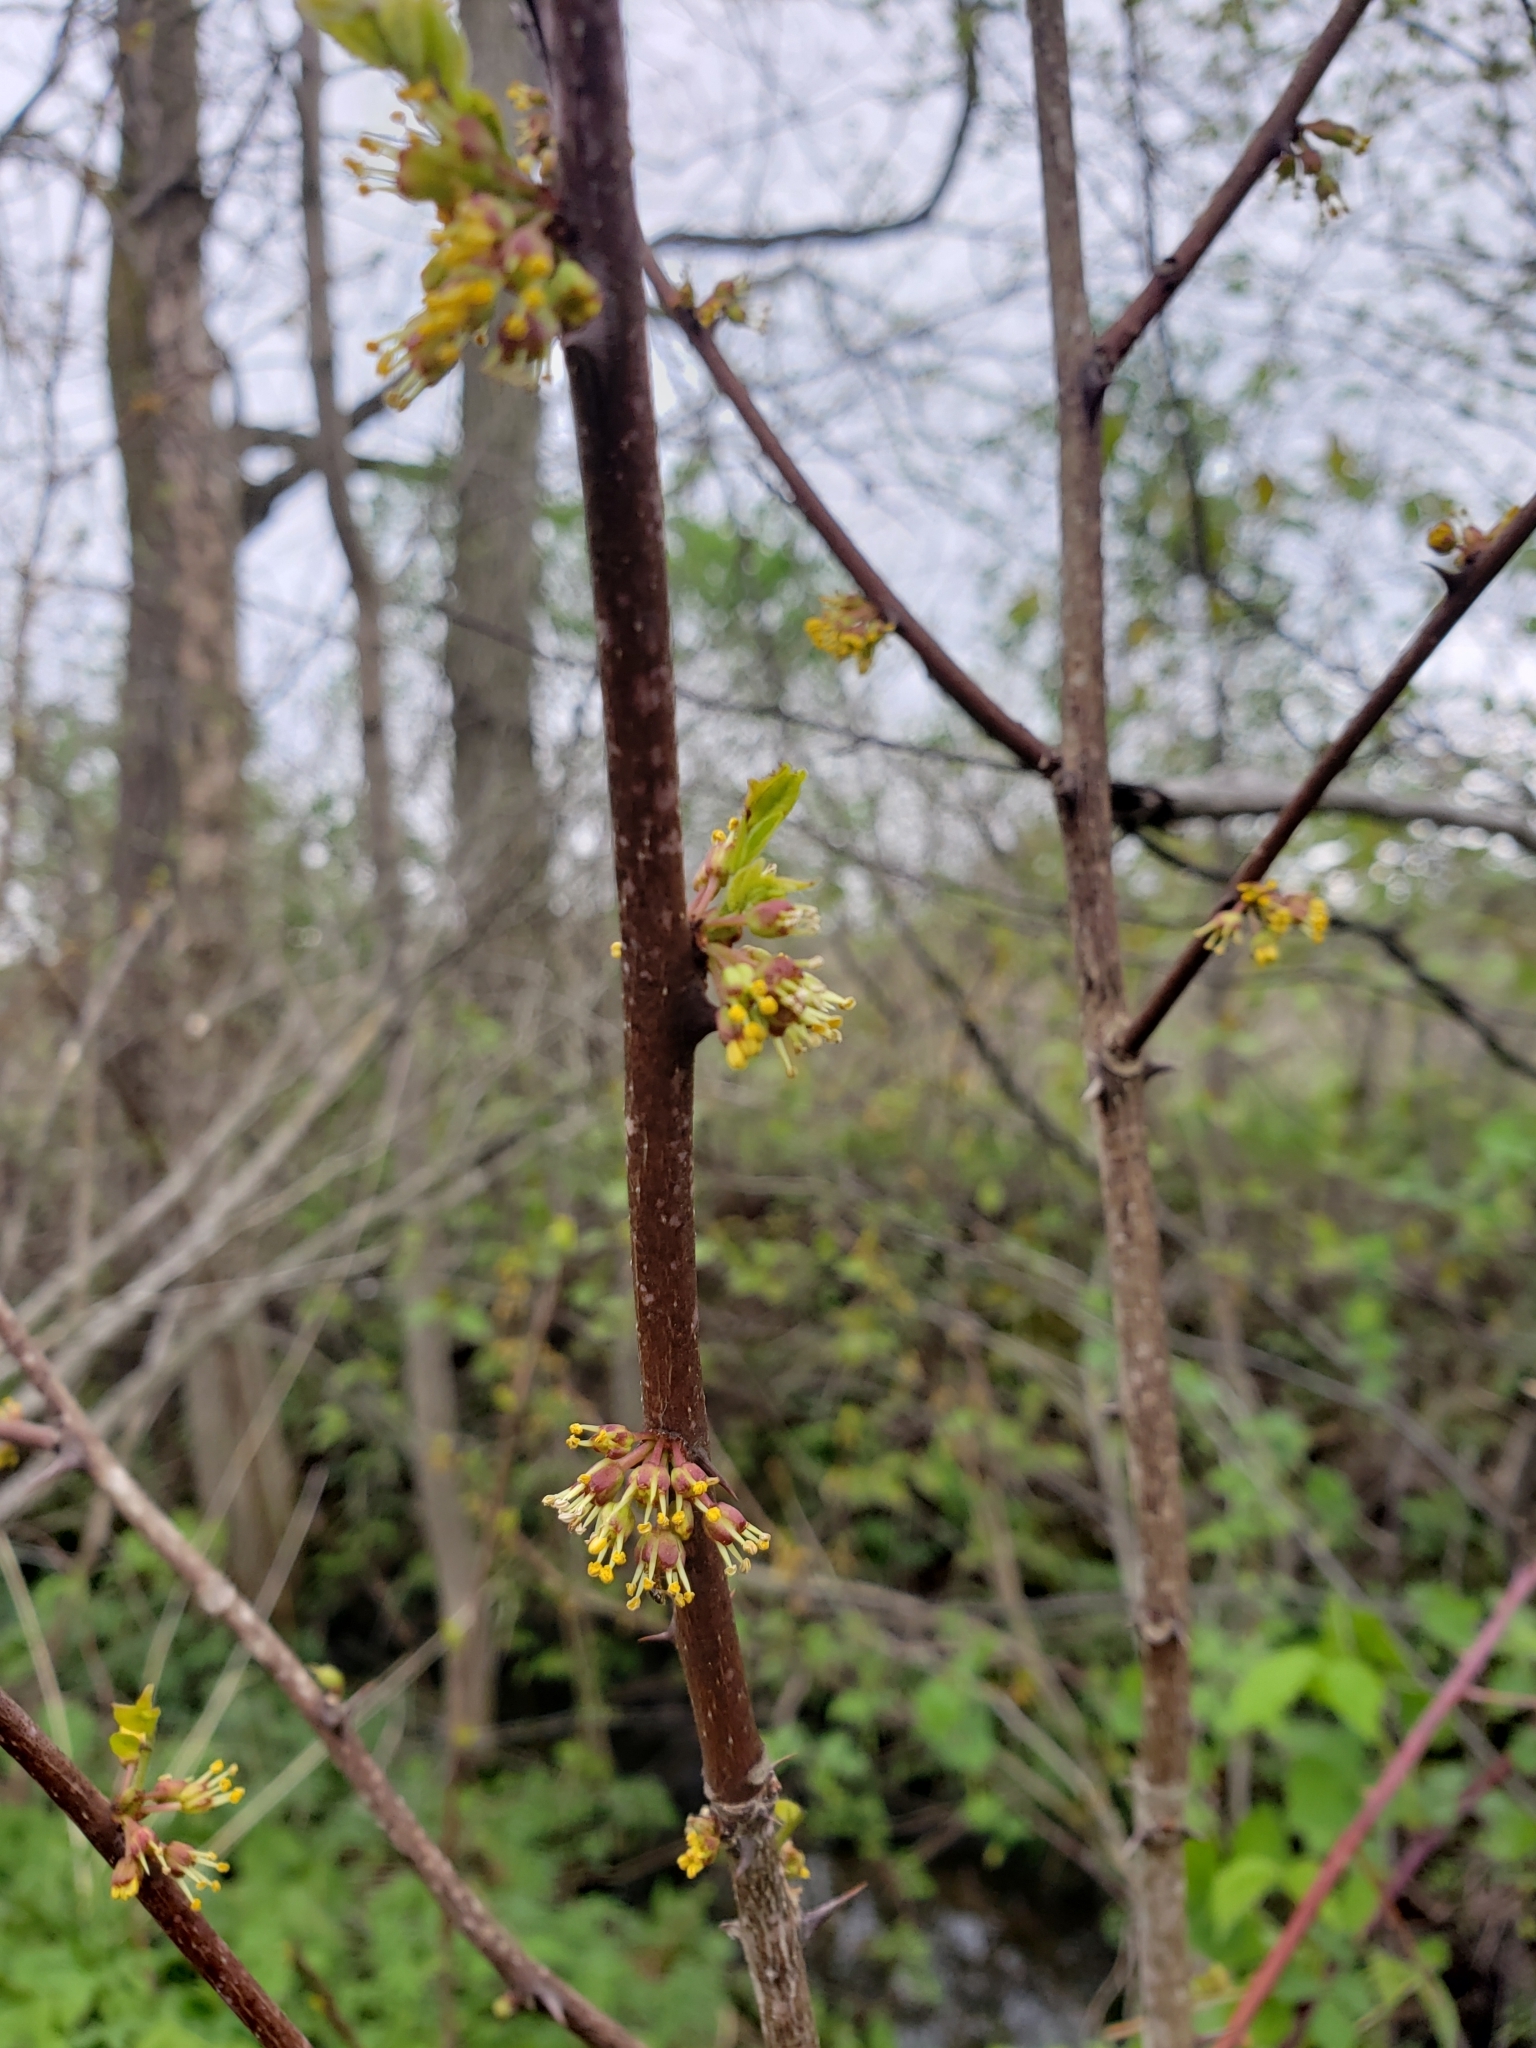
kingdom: Plantae
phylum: Tracheophyta
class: Magnoliopsida
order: Sapindales
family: Rutaceae
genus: Zanthoxylum
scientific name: Zanthoxylum americanum
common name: Northern prickly-ash
